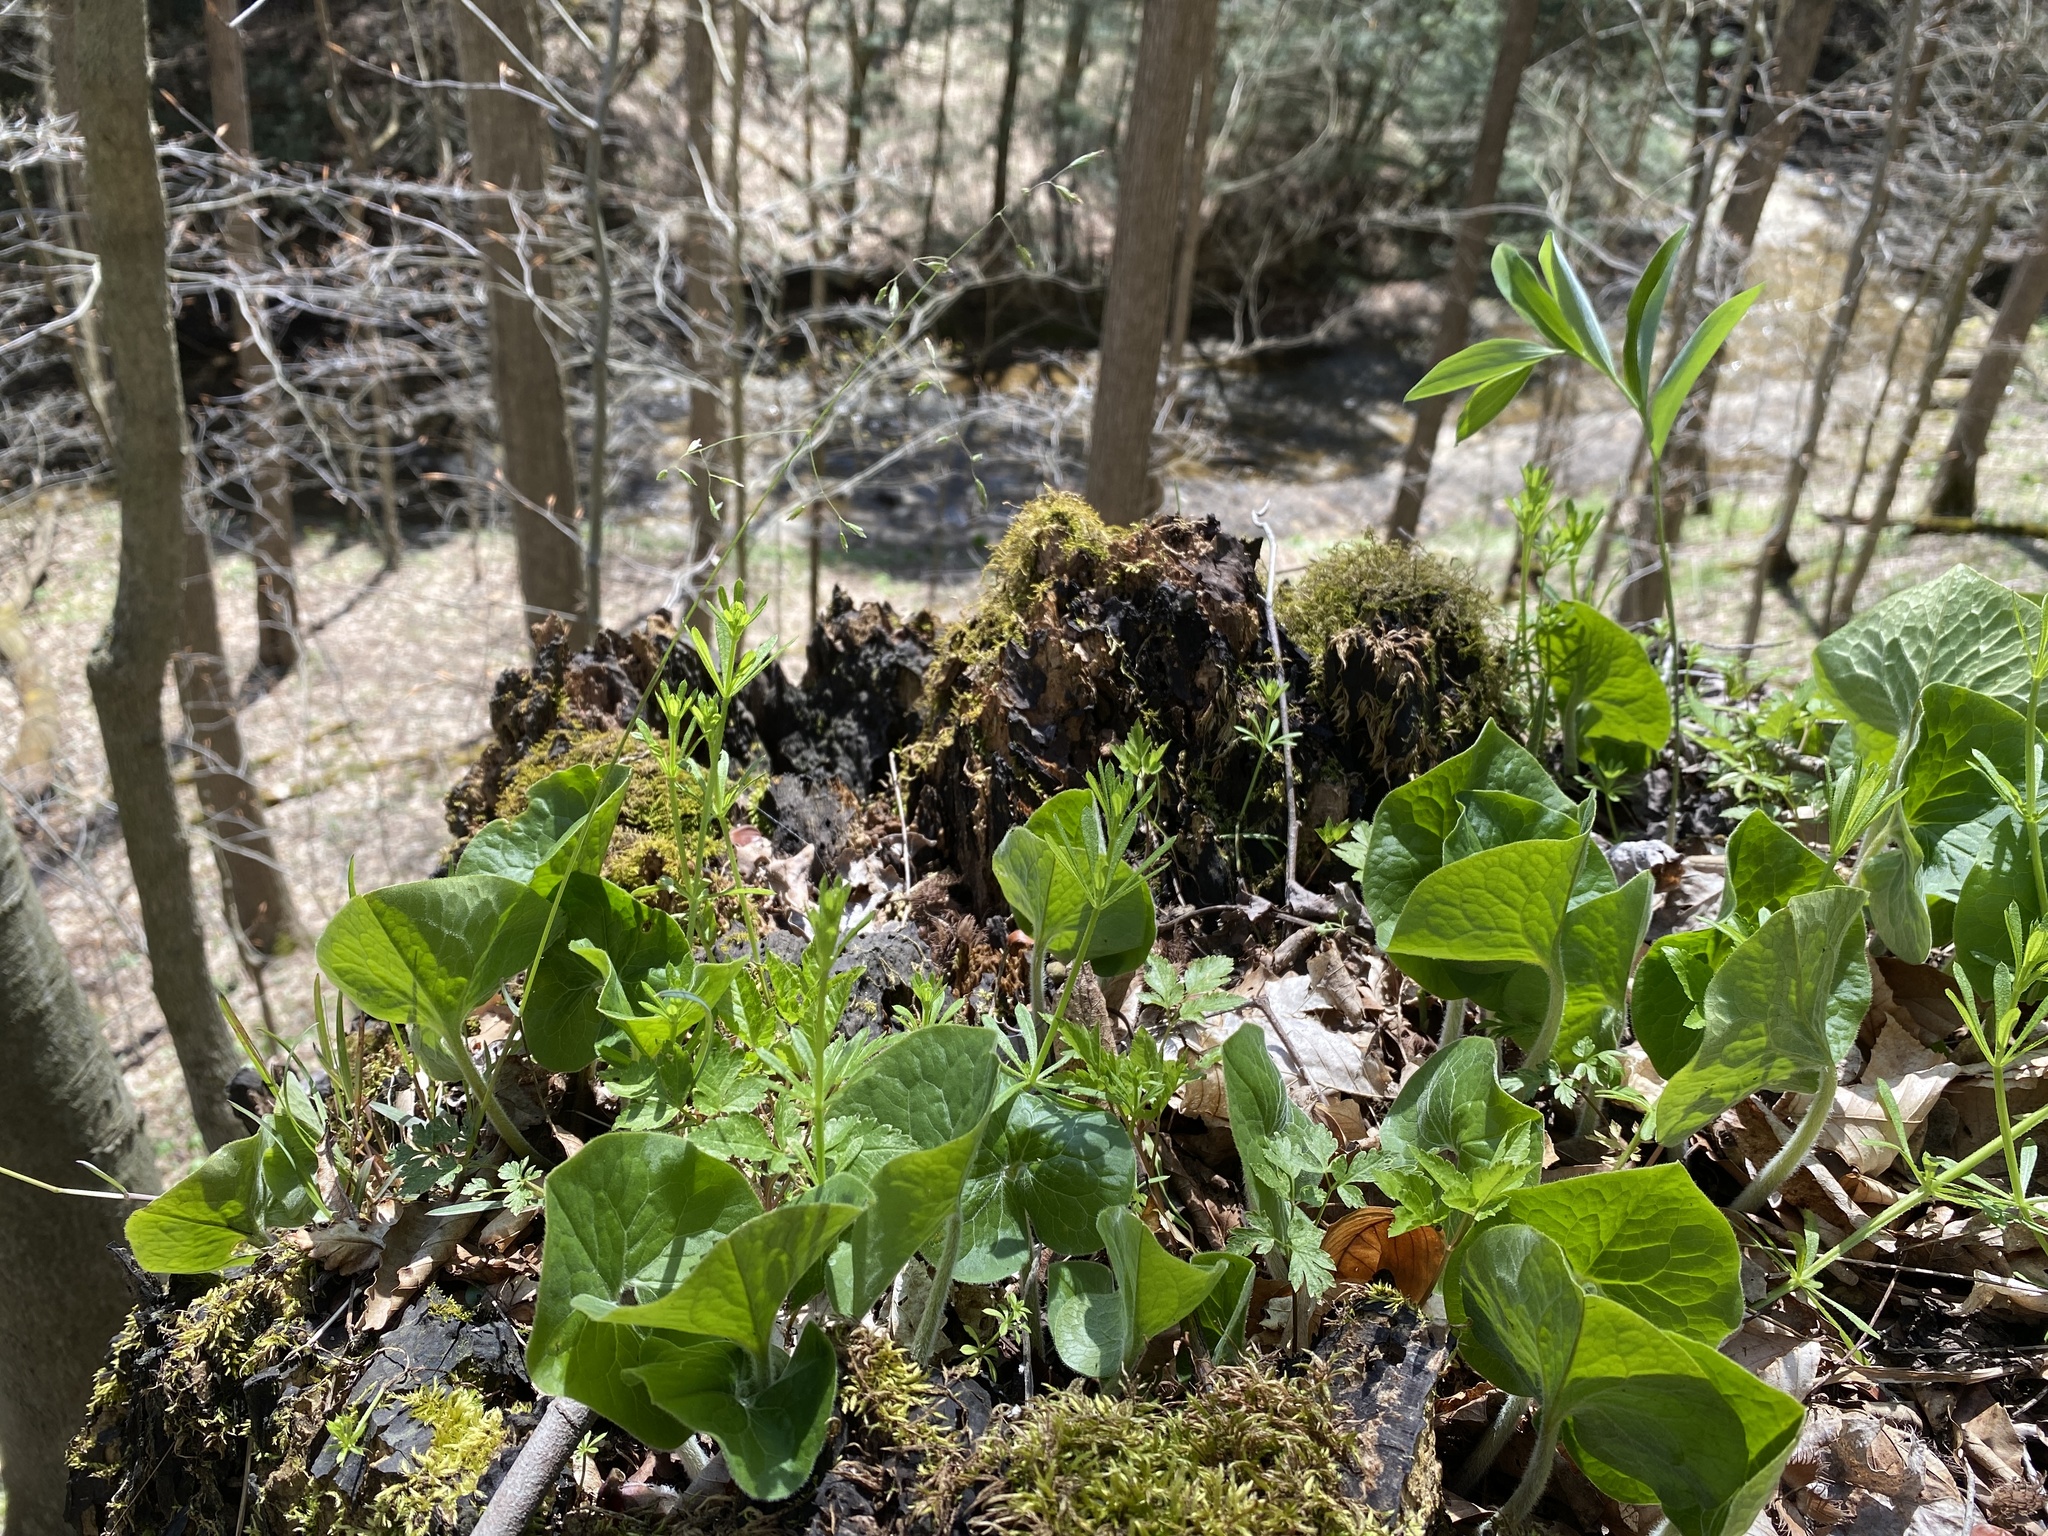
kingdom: Plantae
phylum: Tracheophyta
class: Magnoliopsida
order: Piperales
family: Aristolochiaceae
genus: Asarum
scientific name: Asarum canadense
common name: Wild ginger
